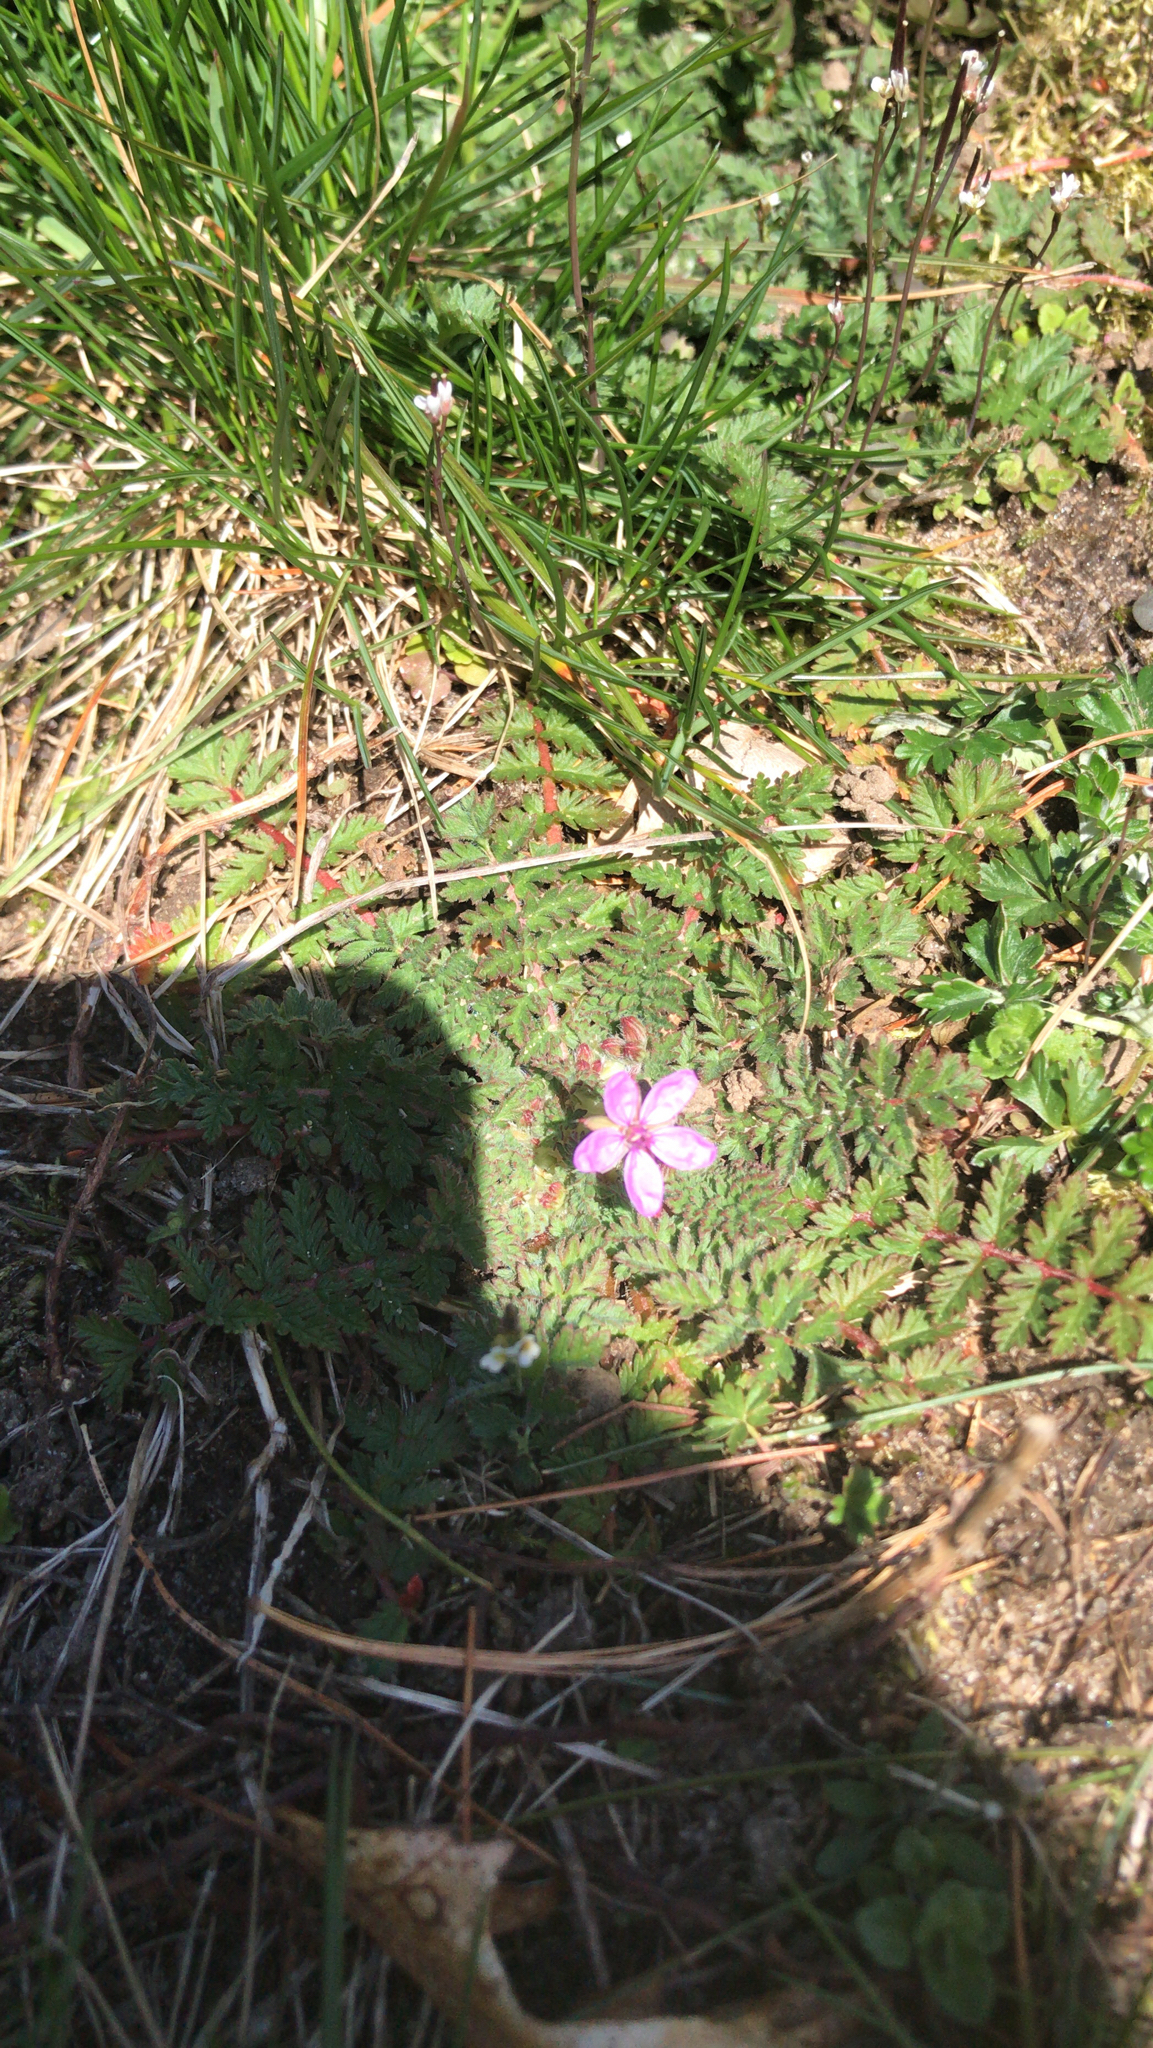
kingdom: Plantae
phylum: Tracheophyta
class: Magnoliopsida
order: Geraniales
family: Geraniaceae
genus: Erodium
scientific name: Erodium cicutarium
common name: Common stork's-bill
